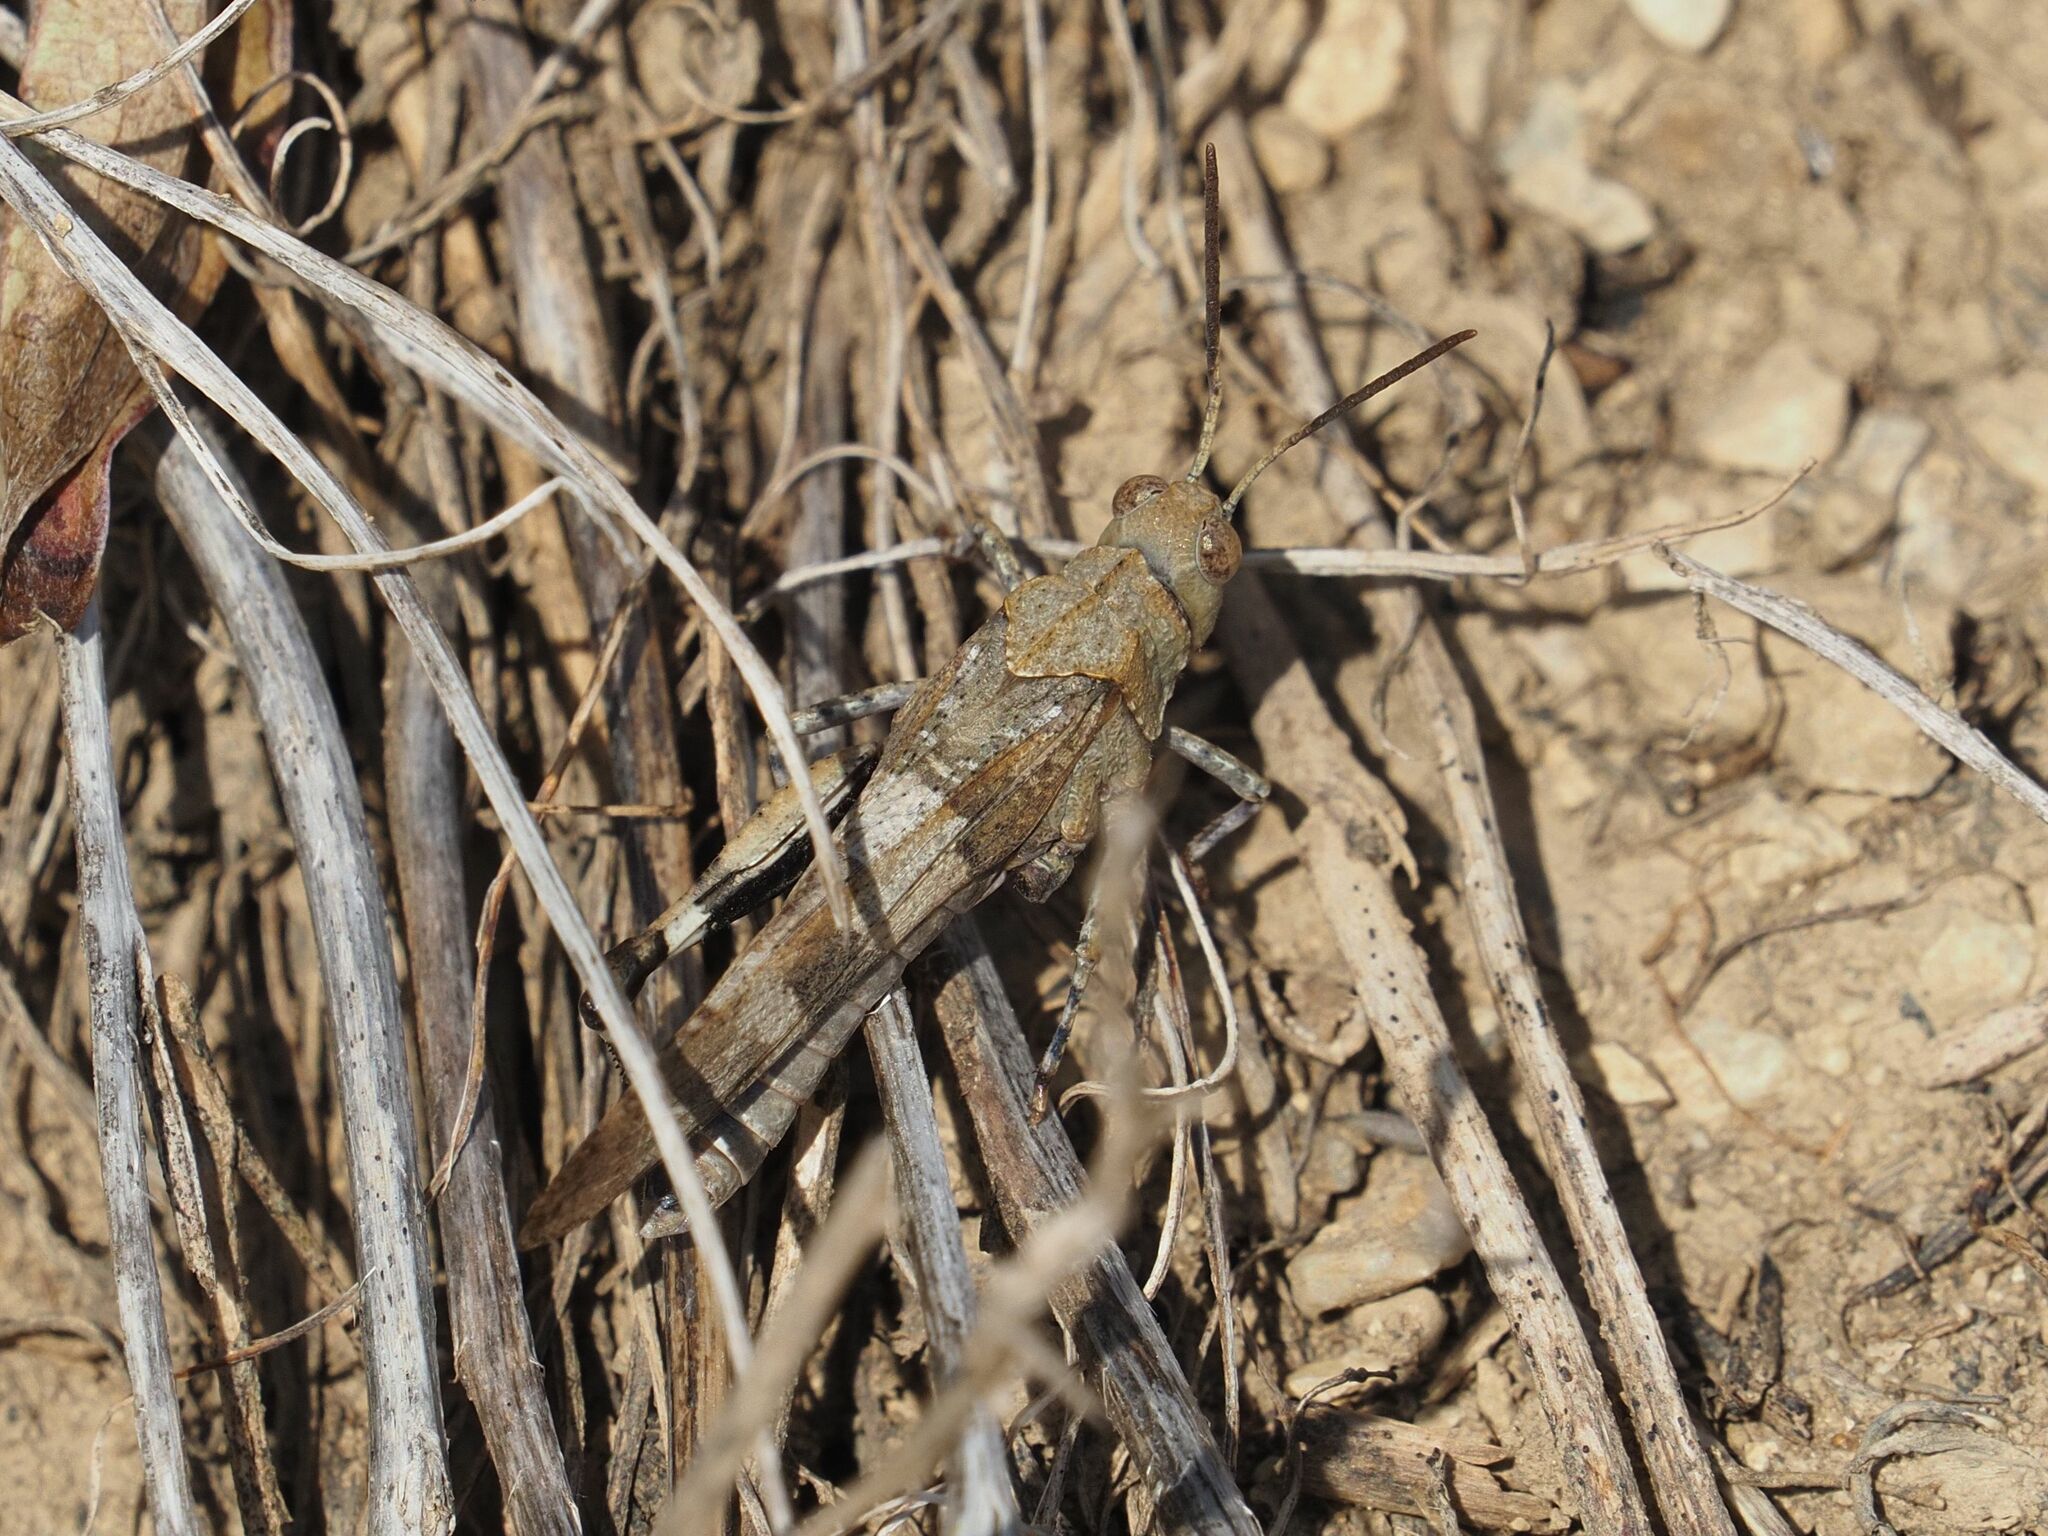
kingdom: Animalia
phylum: Arthropoda
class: Insecta
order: Orthoptera
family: Acrididae
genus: Oedipoda
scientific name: Oedipoda caerulescens
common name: Blue-winged grasshopper
